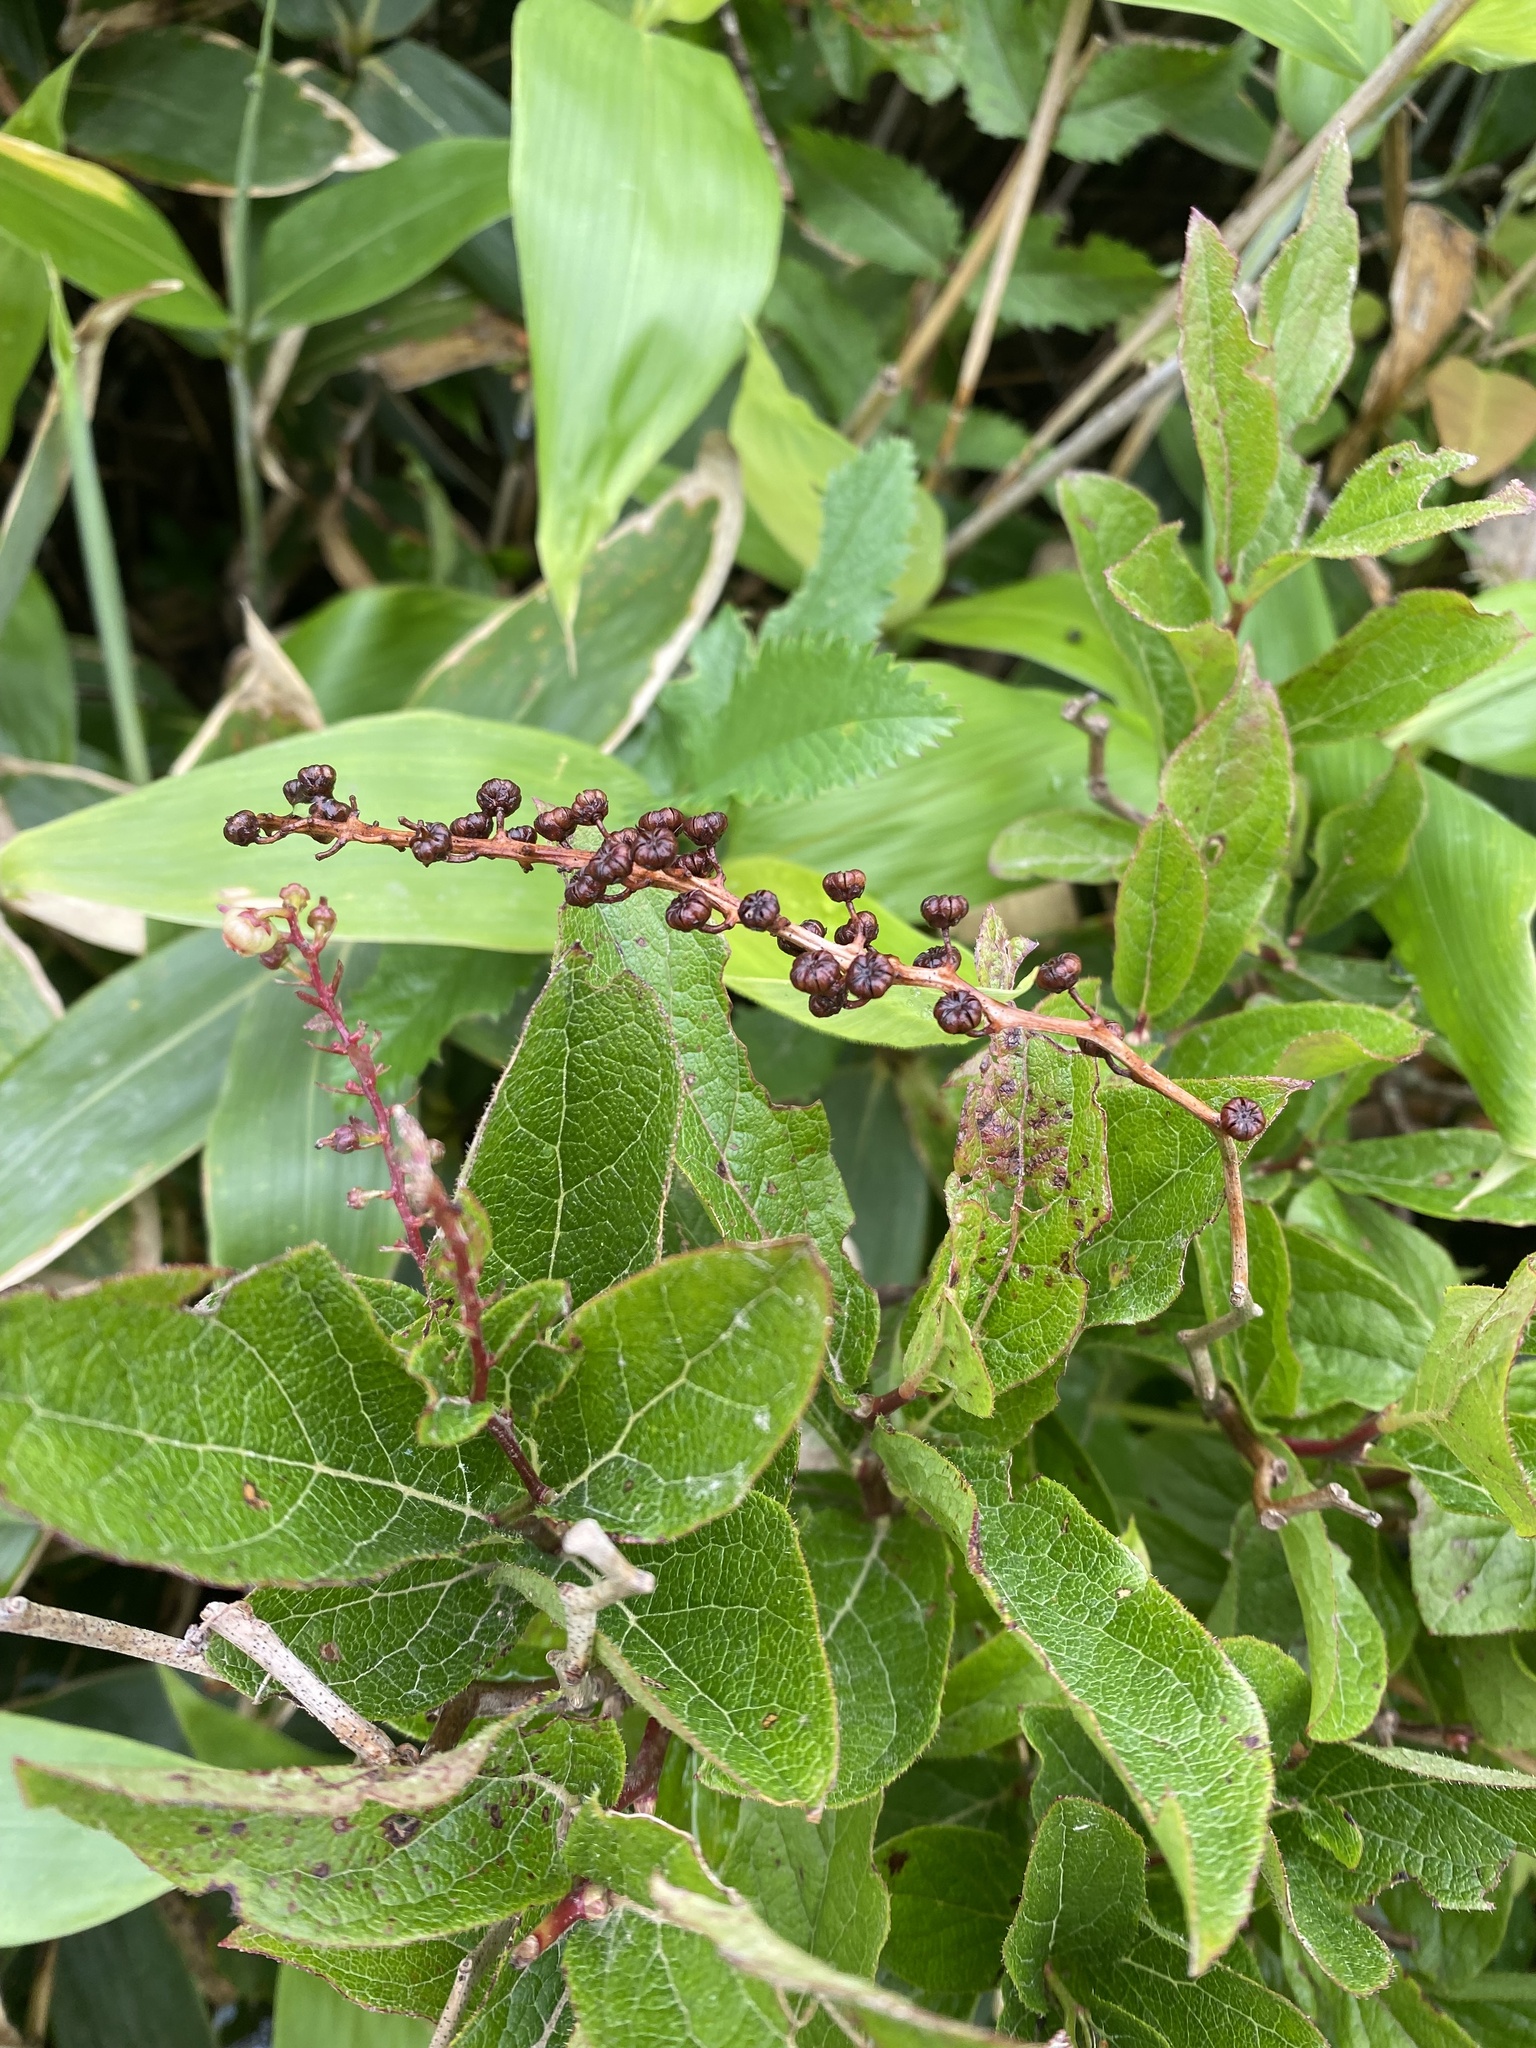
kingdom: Plantae
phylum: Tracheophyta
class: Magnoliopsida
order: Ericales
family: Ericaceae
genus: Leucothoe
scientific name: Leucothoe grayana
